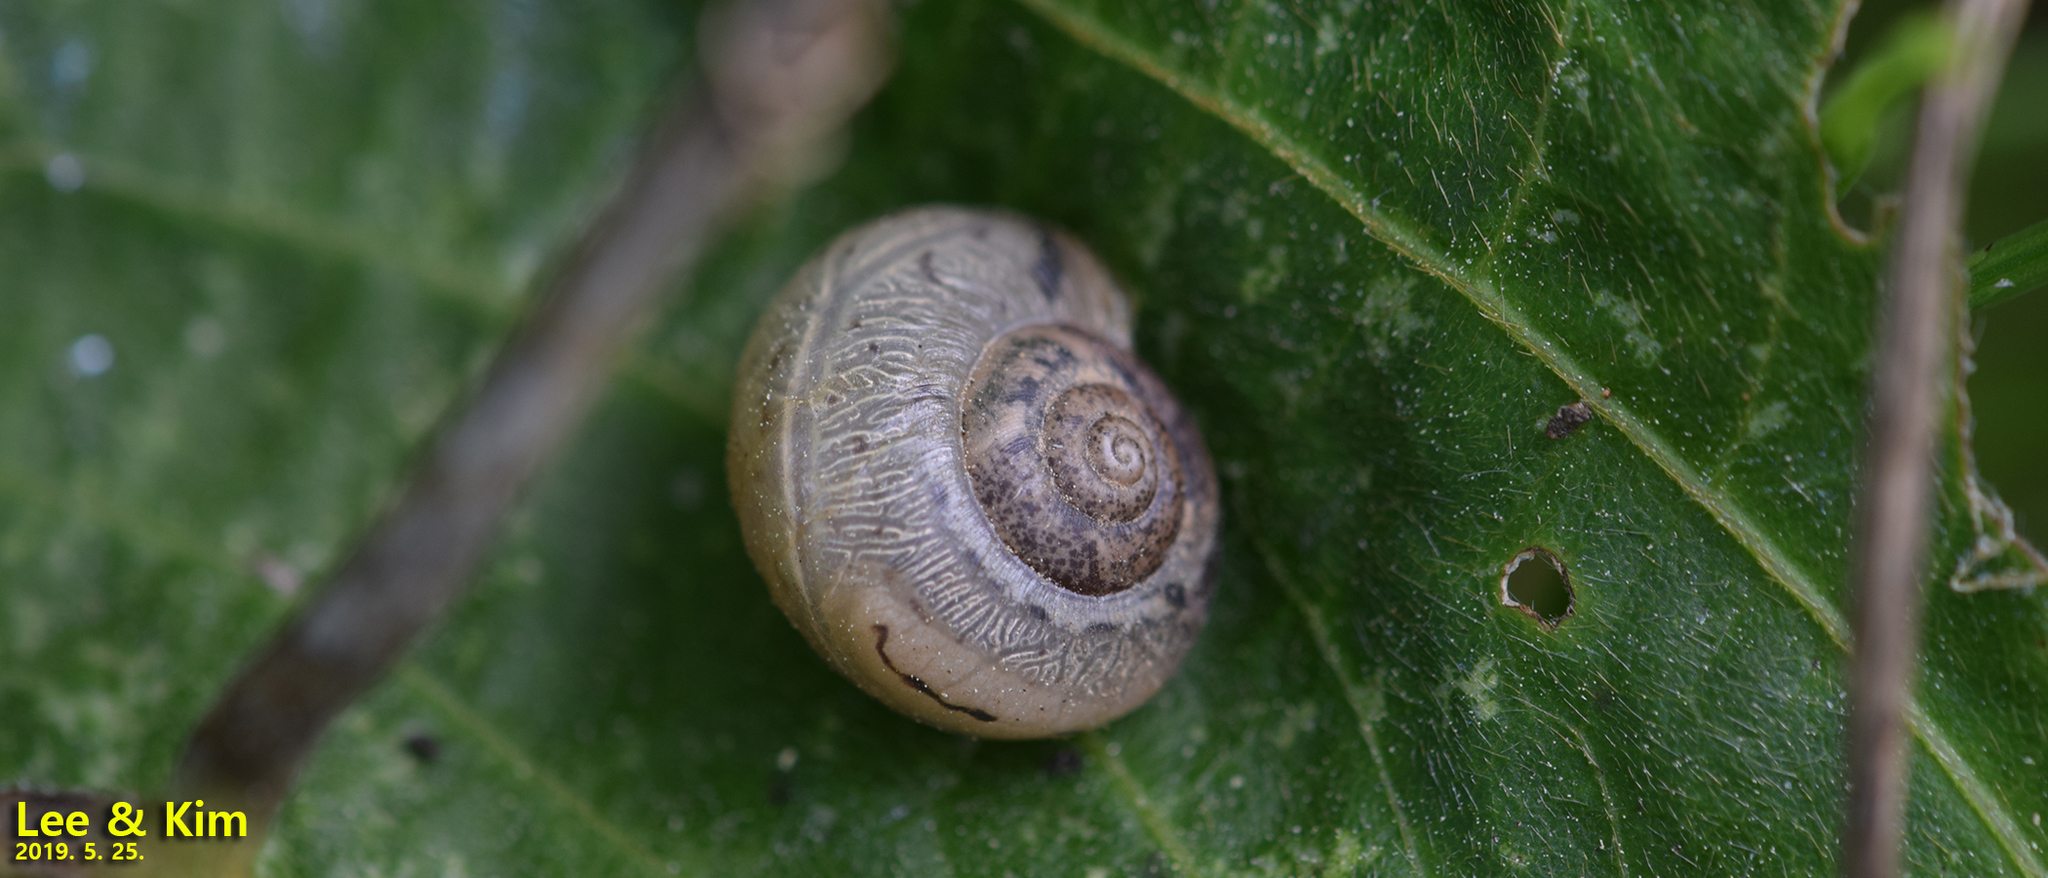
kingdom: Animalia
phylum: Mollusca
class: Gastropoda
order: Stylommatophora
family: Camaenidae
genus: Acusta
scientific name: Acusta redfieldi
